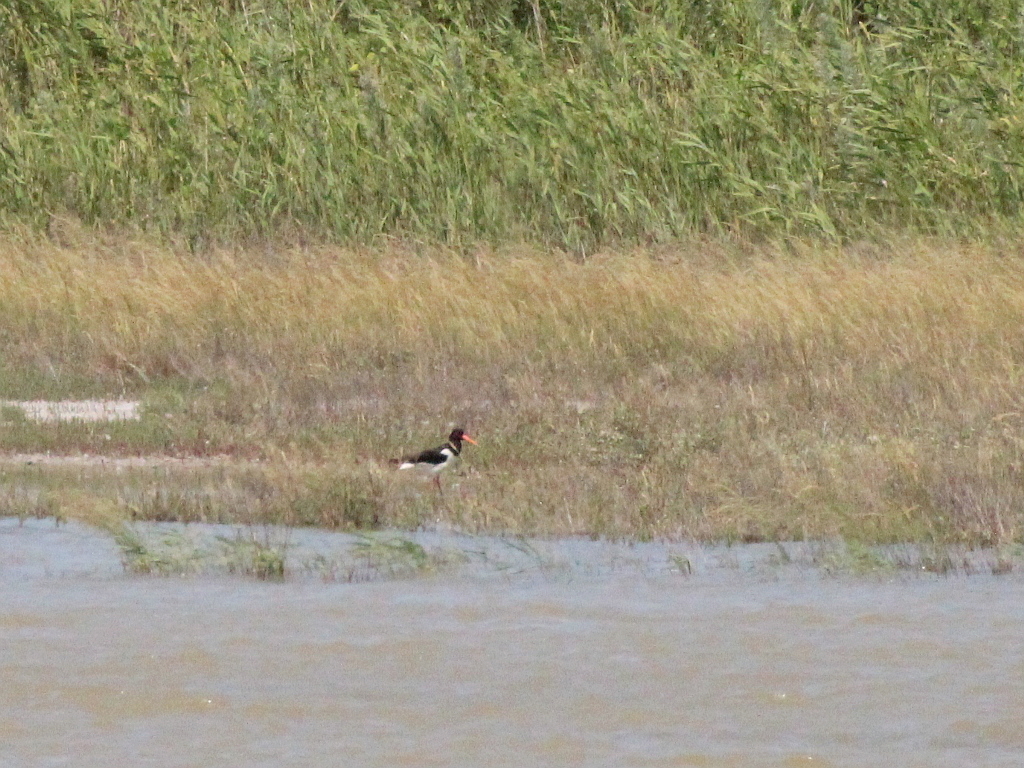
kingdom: Animalia
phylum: Chordata
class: Aves
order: Charadriiformes
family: Haematopodidae
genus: Haematopus
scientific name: Haematopus ostralegus
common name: Eurasian oystercatcher
